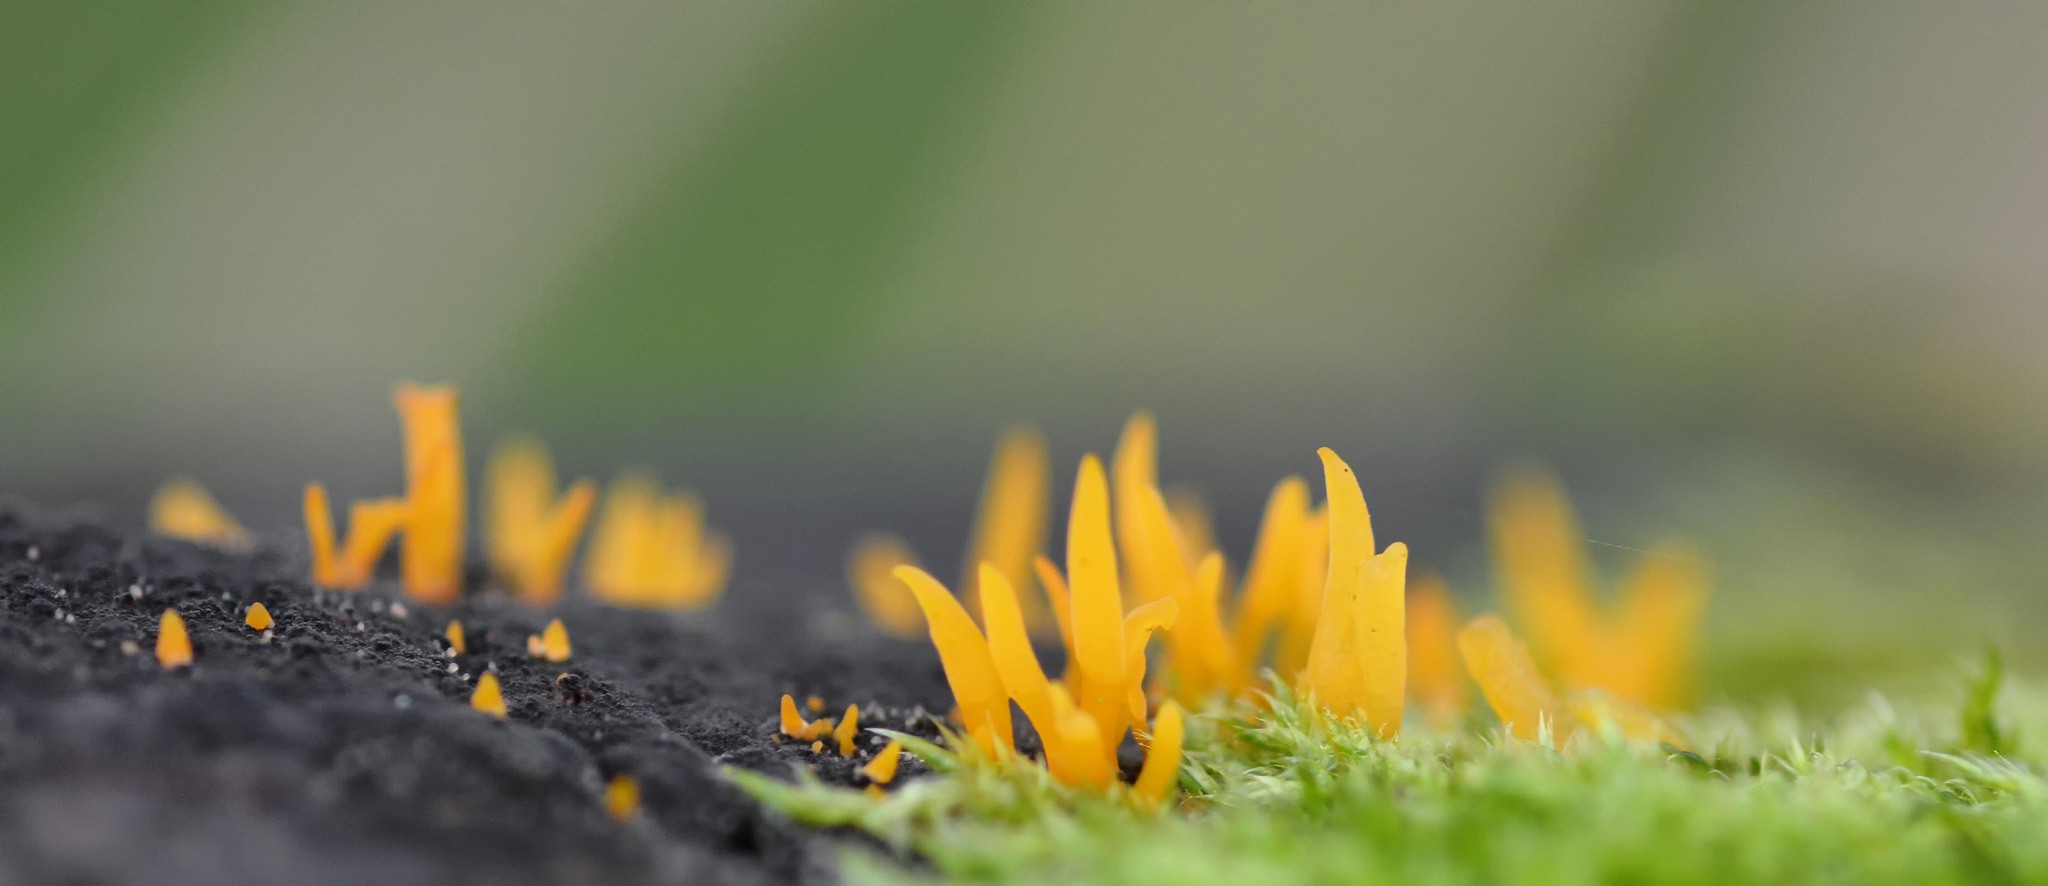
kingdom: Fungi
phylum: Basidiomycota
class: Dacrymycetes
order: Dacrymycetales
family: Dacrymycetaceae
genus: Calocera
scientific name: Calocera cornea
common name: Small stagshorn
